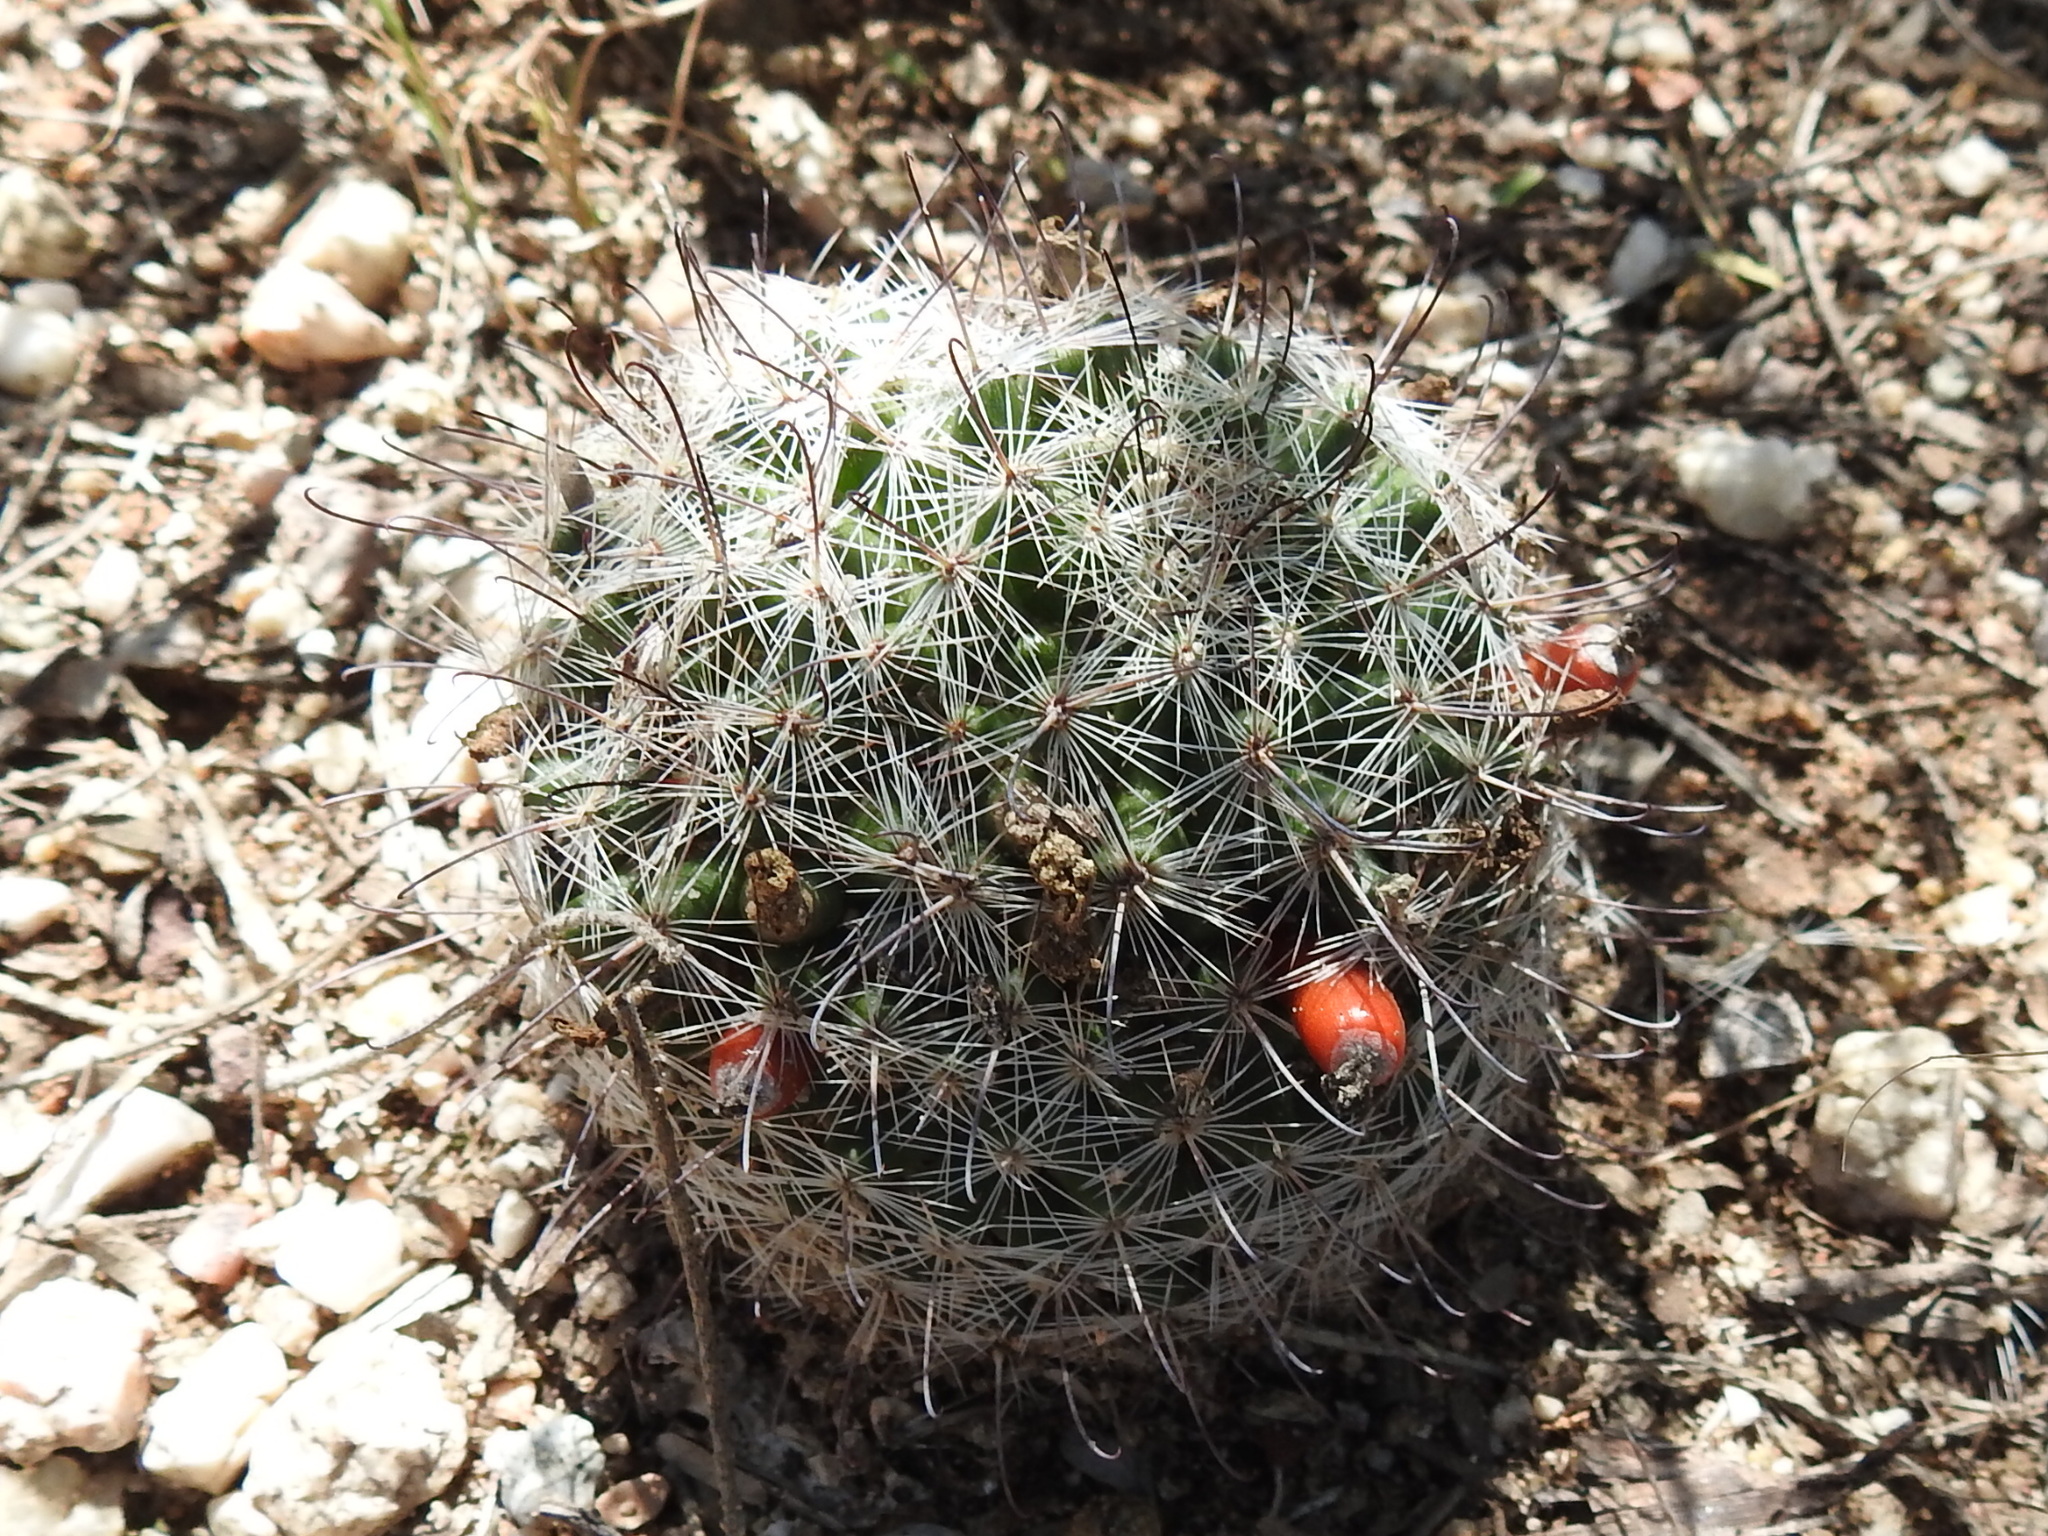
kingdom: Plantae
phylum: Tracheophyta
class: Magnoliopsida
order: Caryophyllales
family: Cactaceae
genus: Cochemiea
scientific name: Cochemiea grahamii
